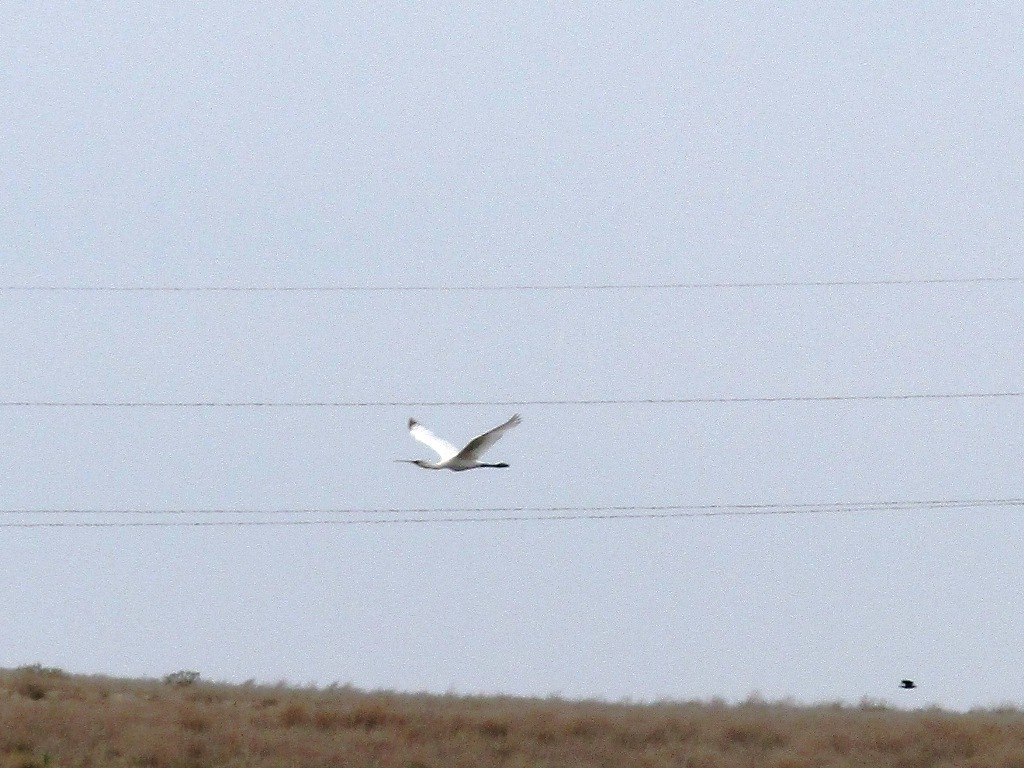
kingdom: Animalia
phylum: Chordata
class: Aves
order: Pelecaniformes
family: Threskiornithidae
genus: Platalea
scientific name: Platalea leucorodia
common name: Eurasian spoonbill
